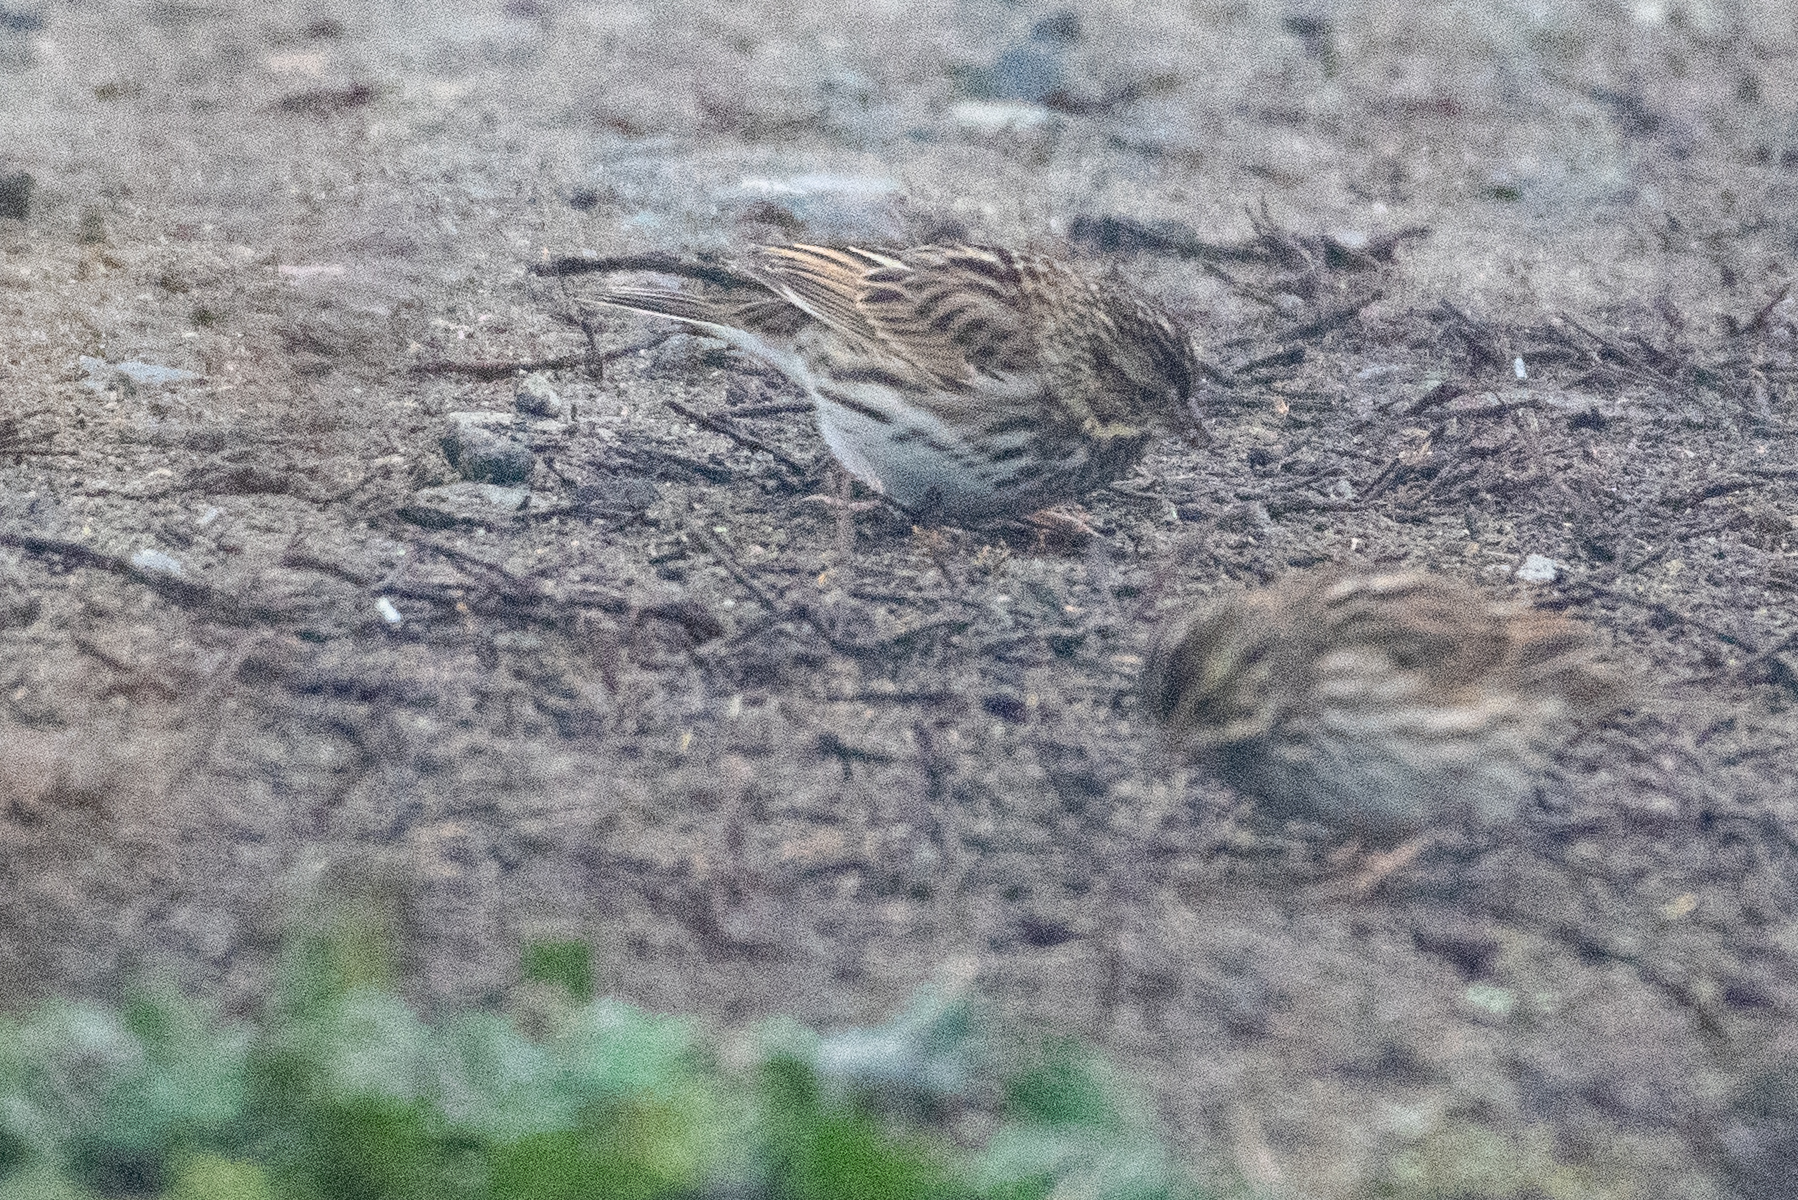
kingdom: Animalia
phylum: Chordata
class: Aves
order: Passeriformes
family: Passerellidae
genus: Passerculus
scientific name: Passerculus sandwichensis
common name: Savannah sparrow
